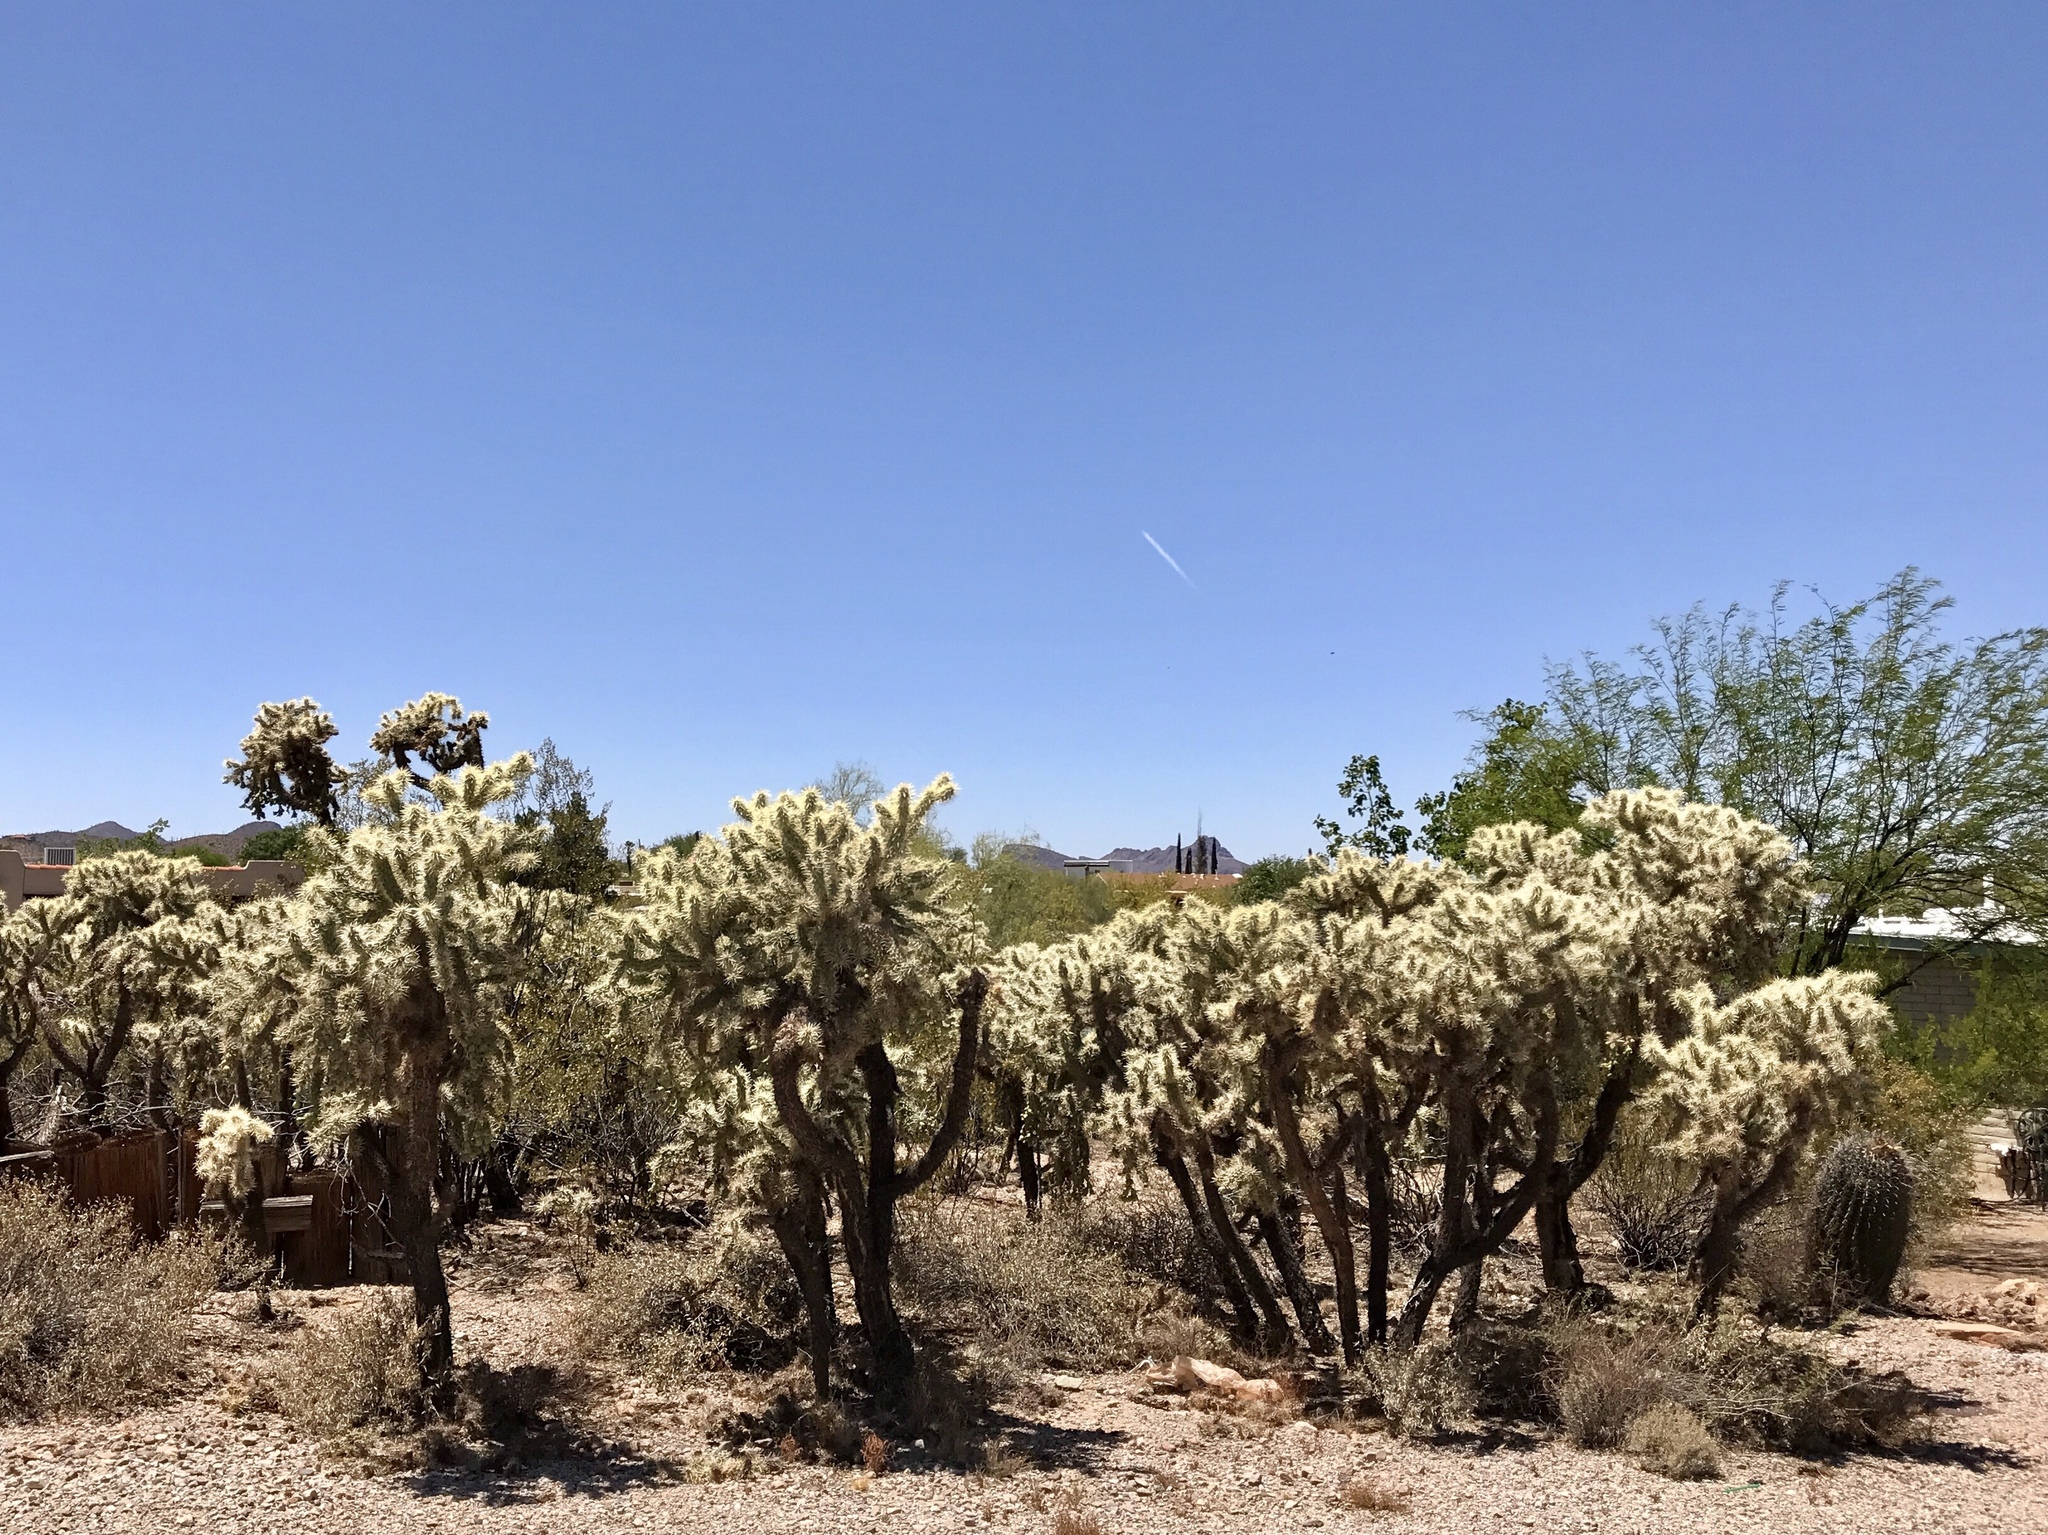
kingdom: Plantae
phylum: Tracheophyta
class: Magnoliopsida
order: Caryophyllales
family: Cactaceae
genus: Cylindropuntia
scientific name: Cylindropuntia fulgida
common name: Jumping cholla
